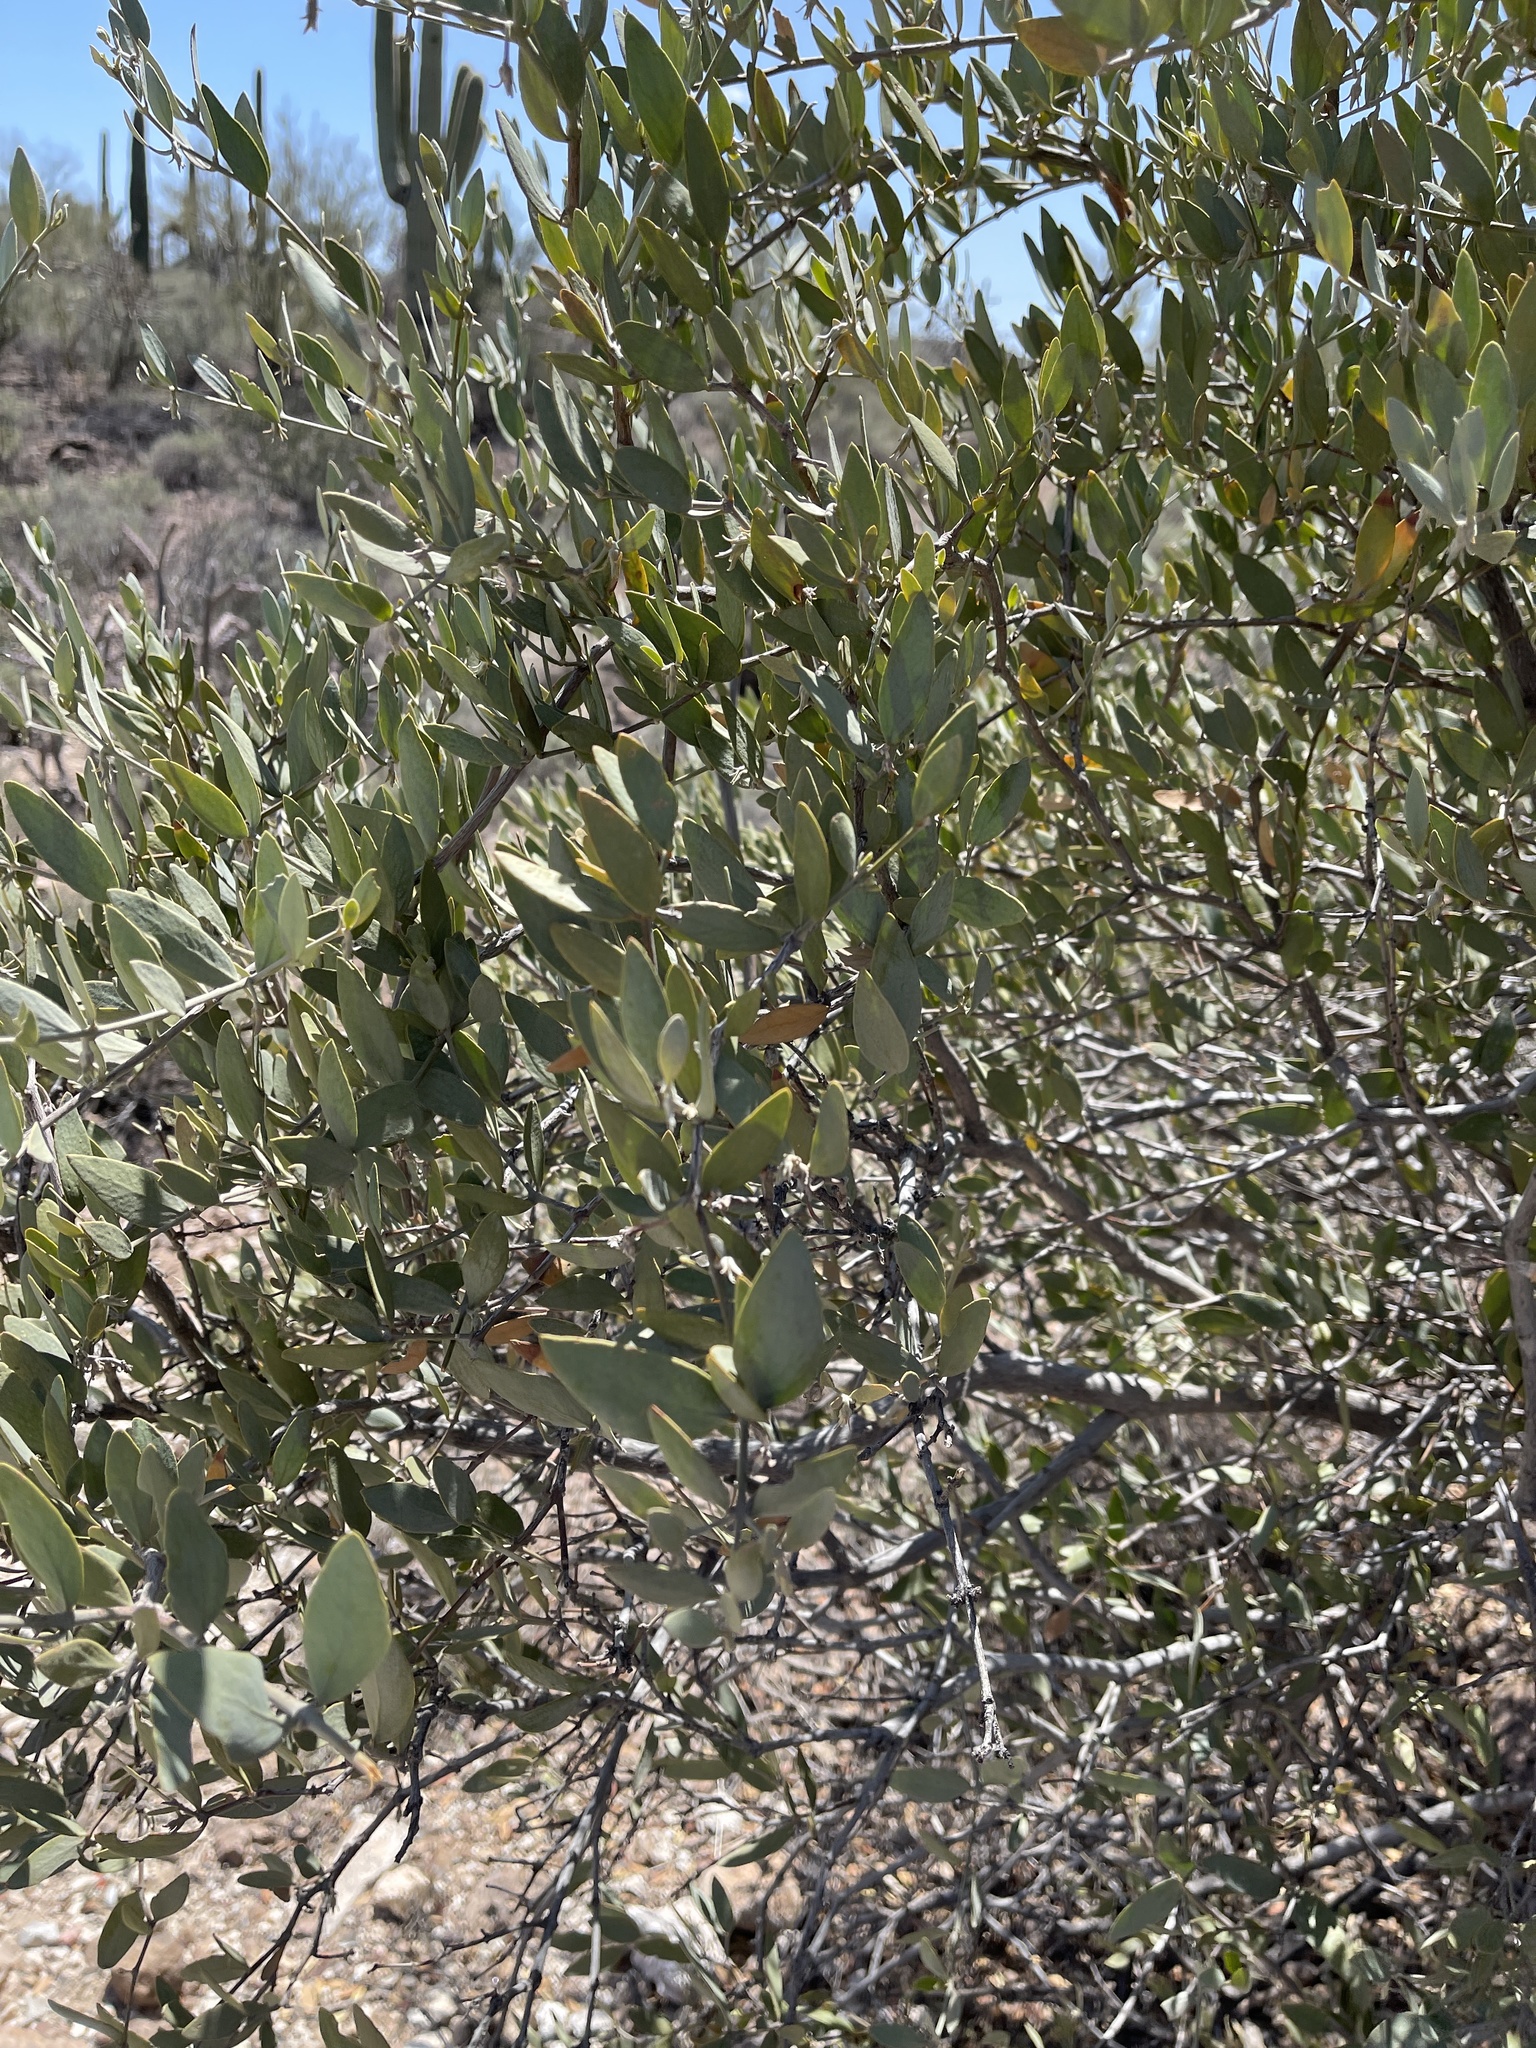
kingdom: Plantae
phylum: Tracheophyta
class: Magnoliopsida
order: Caryophyllales
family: Simmondsiaceae
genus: Simmondsia
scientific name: Simmondsia chinensis
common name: Jojoba
